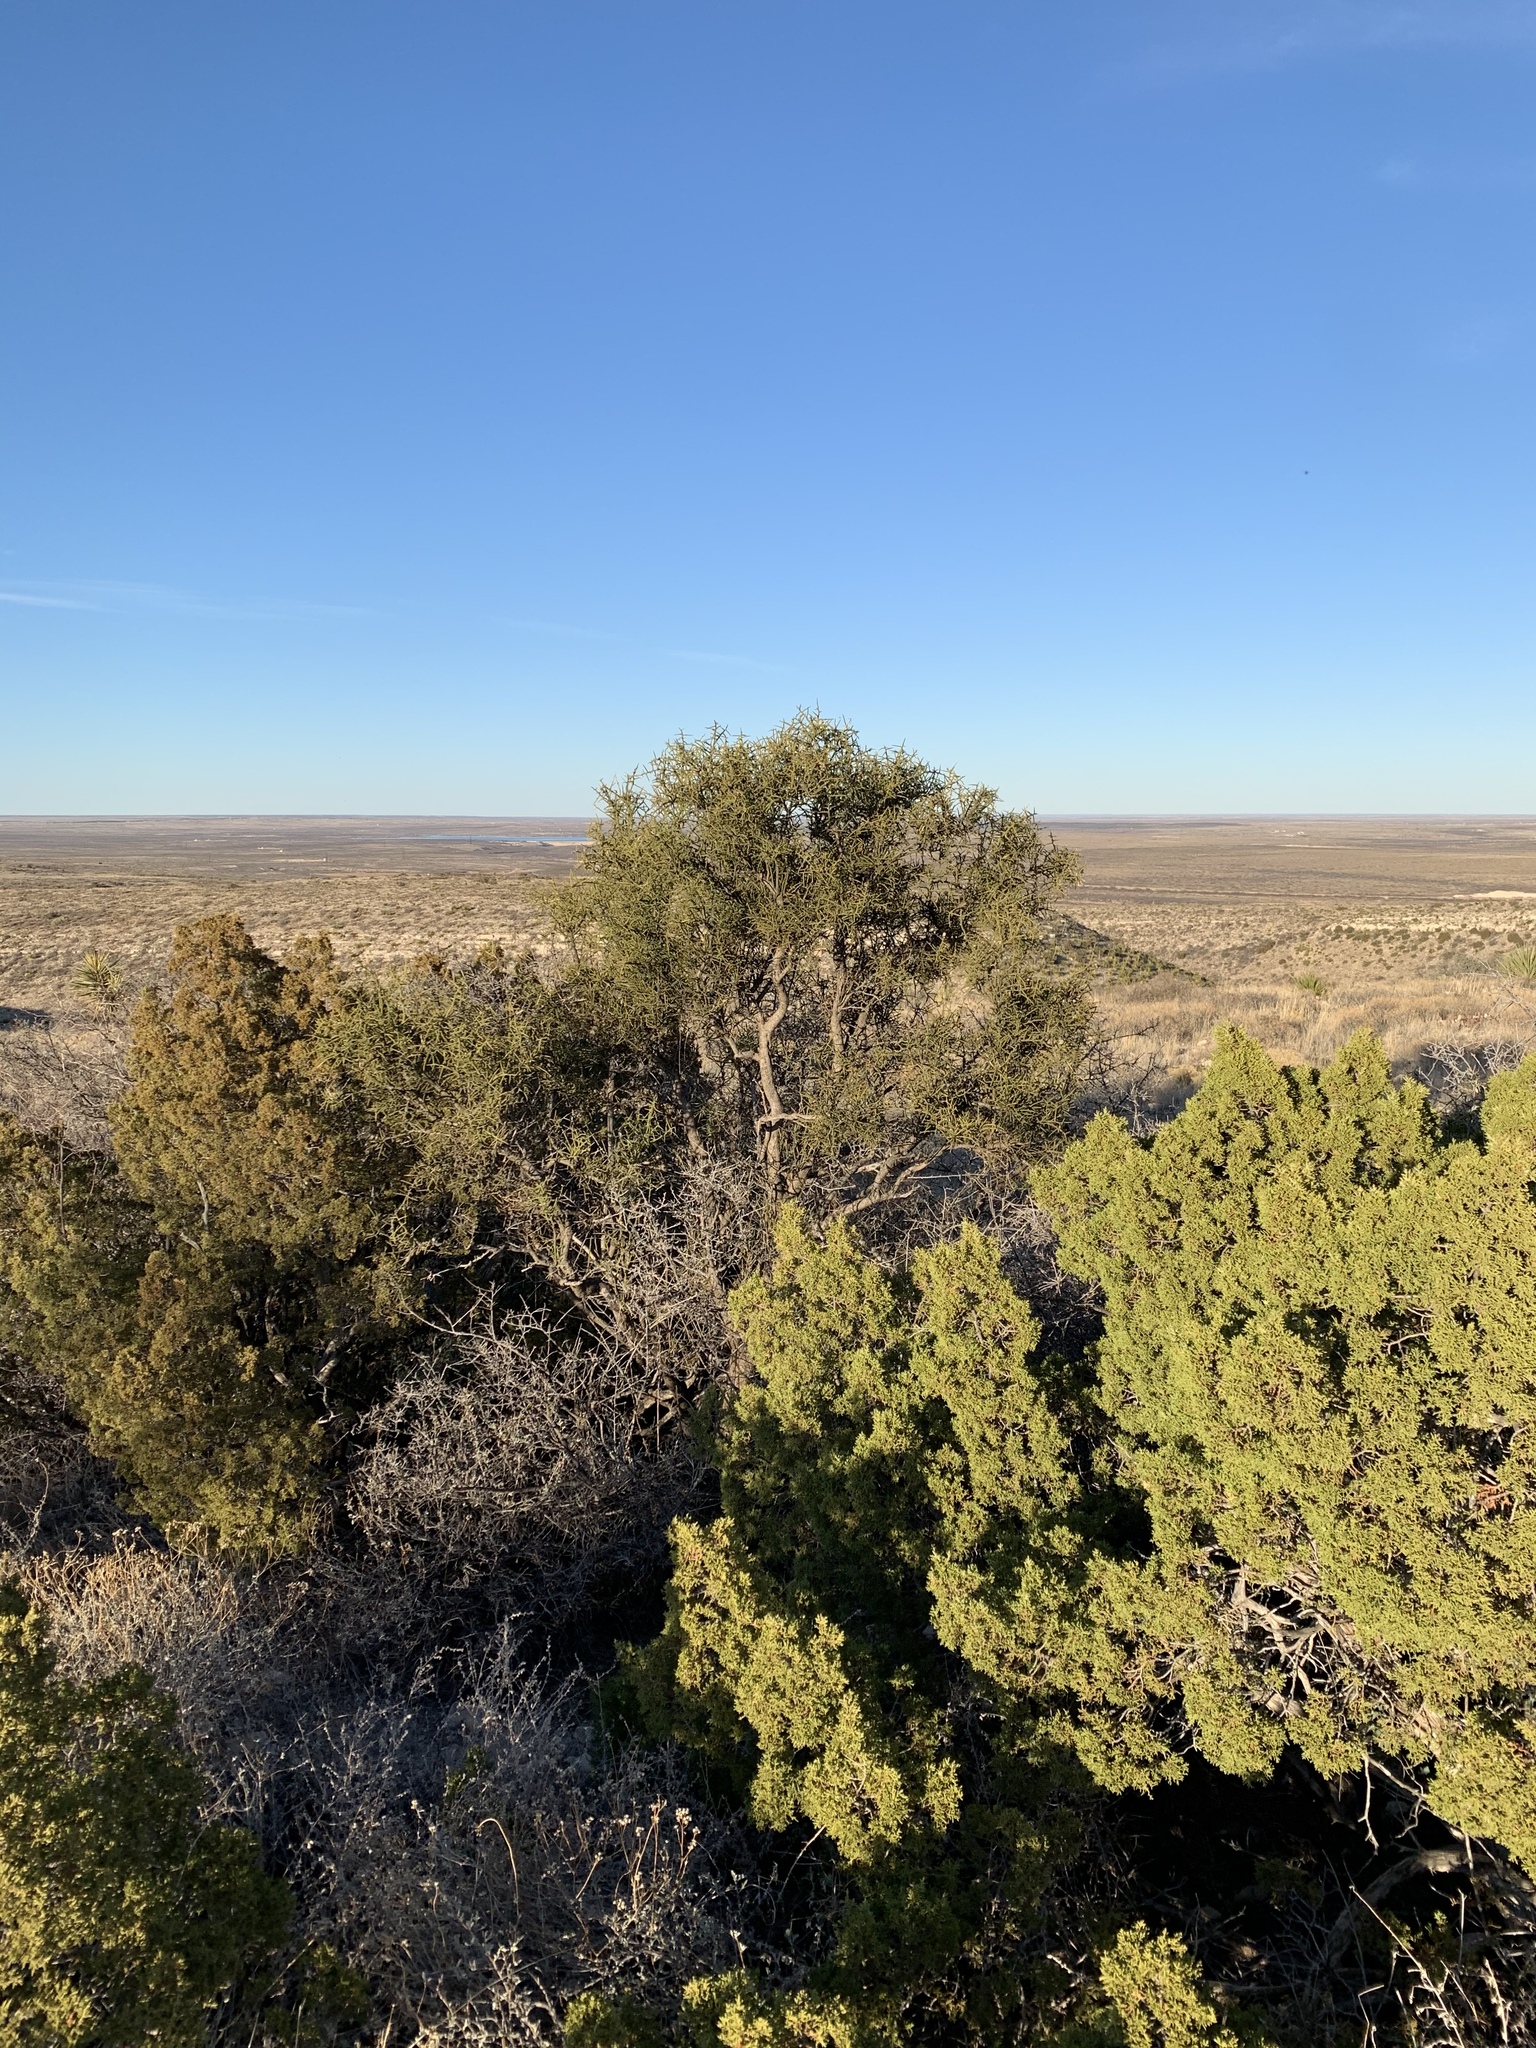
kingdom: Plantae
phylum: Tracheophyta
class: Magnoliopsida
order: Brassicales
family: Koeberliniaceae
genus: Koeberlinia
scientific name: Koeberlinia spinosa
